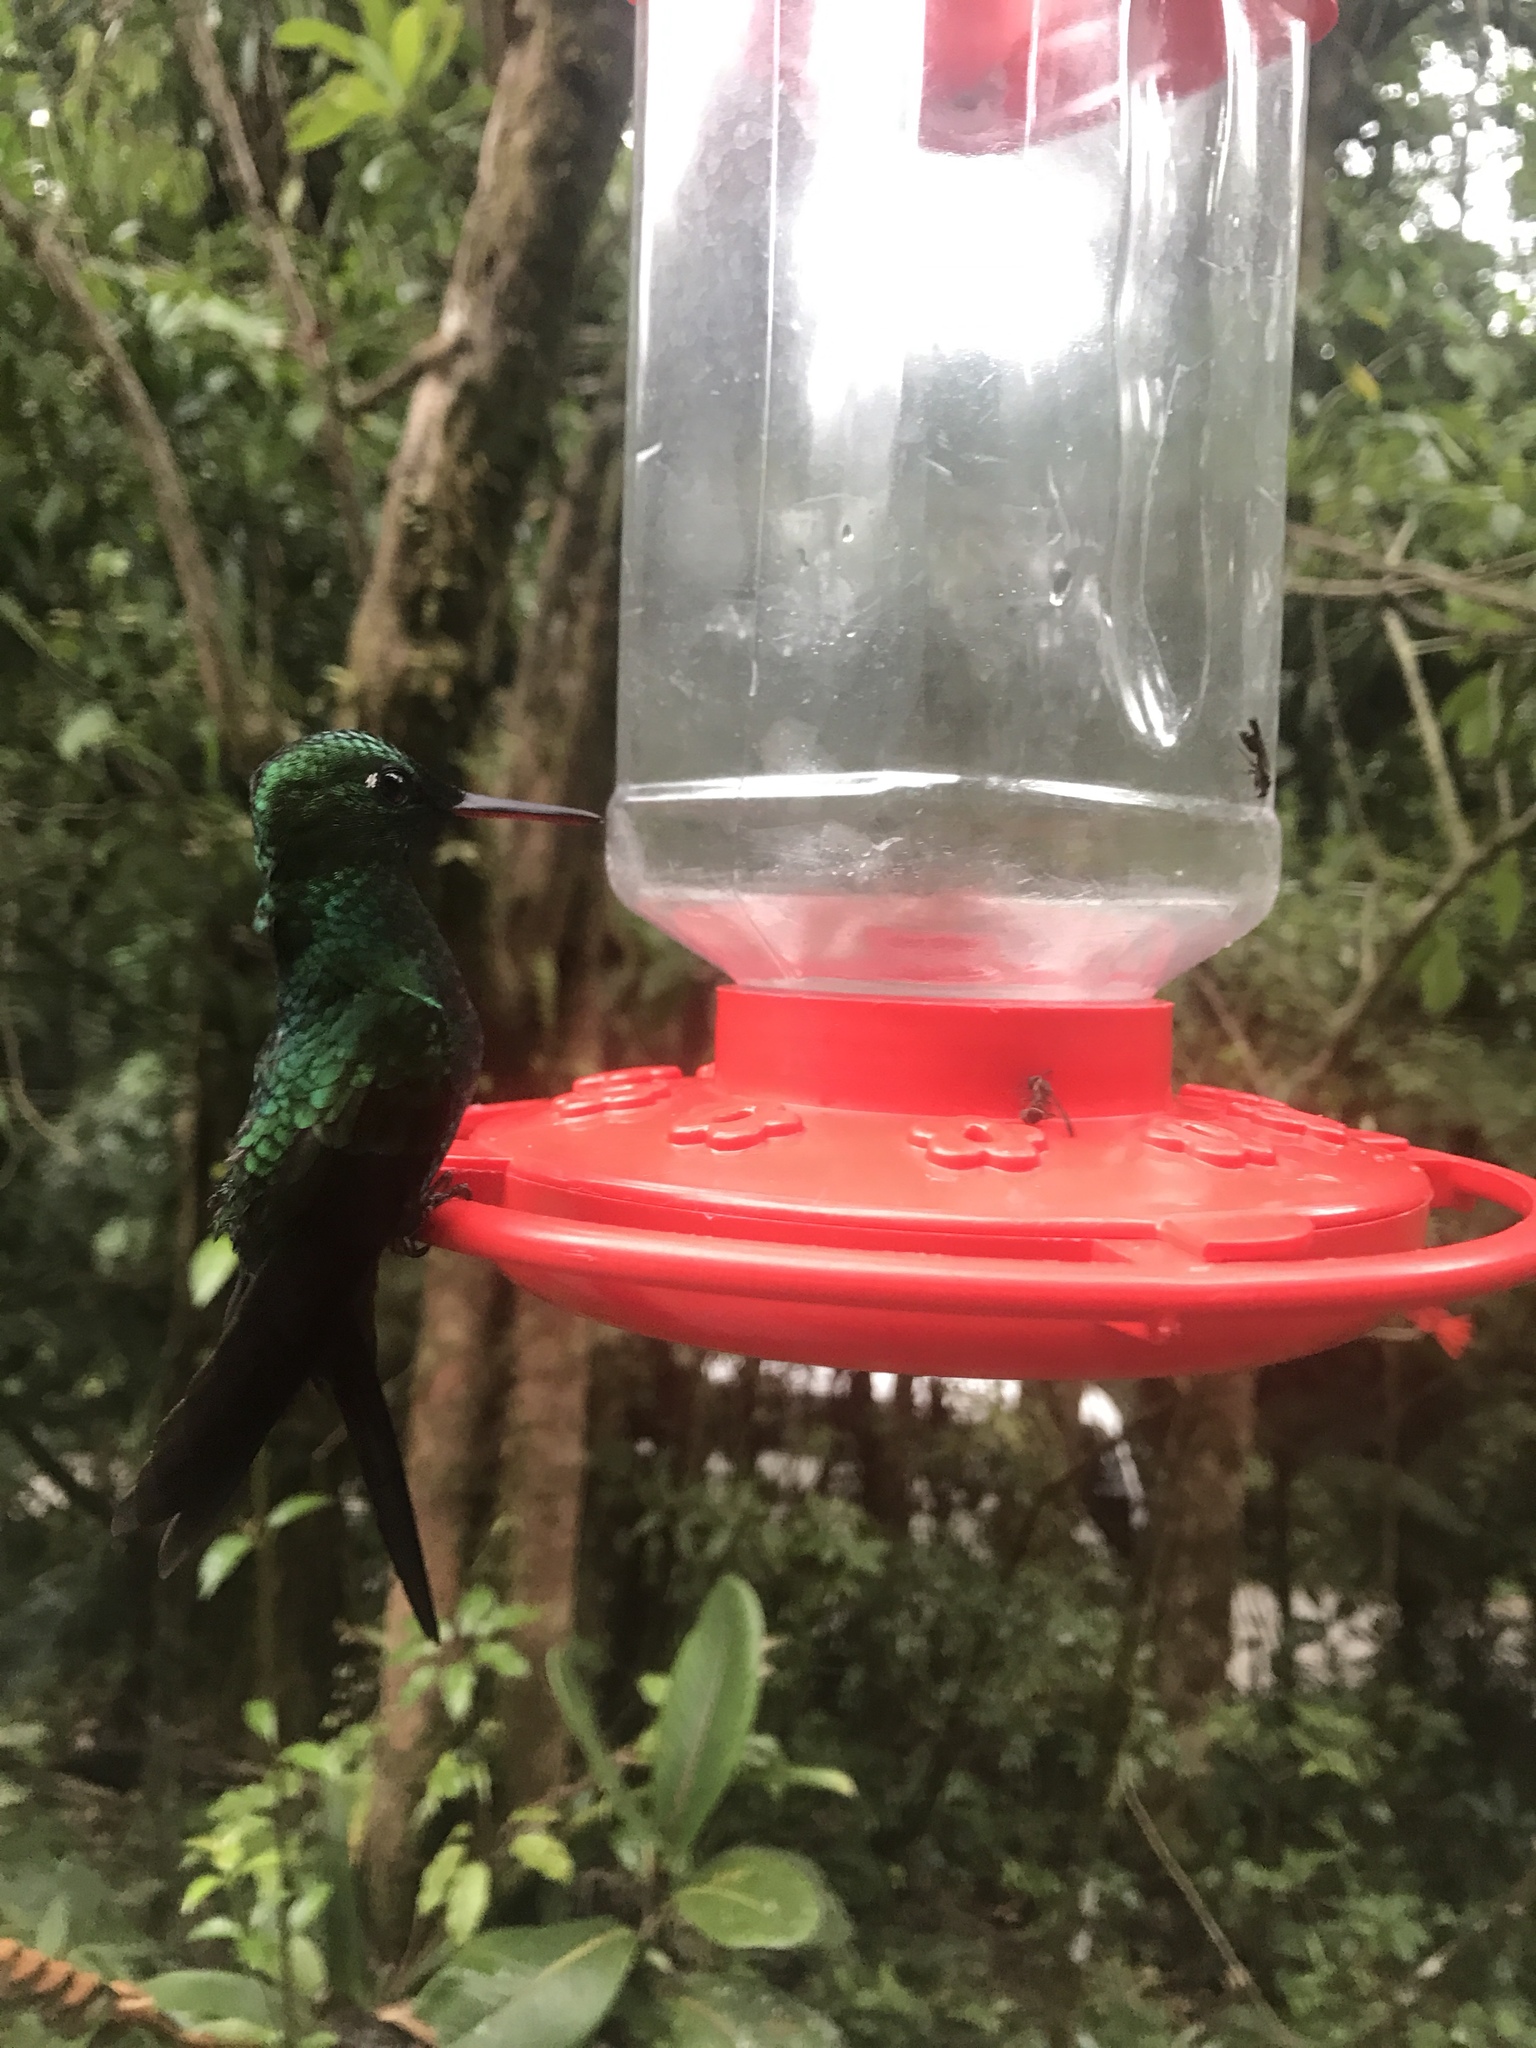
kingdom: Animalia
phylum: Chordata
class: Aves
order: Apodiformes
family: Trochilidae
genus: Heliodoxa
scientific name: Heliodoxa jacula
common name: Green-crowned brilliant
